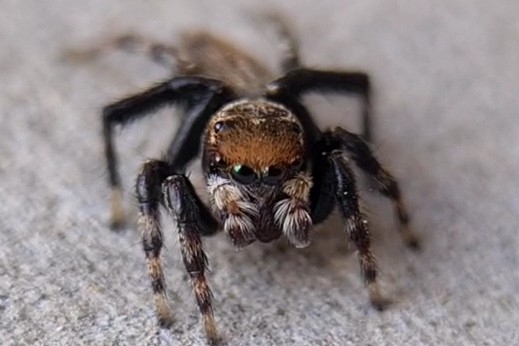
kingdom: Animalia
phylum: Arthropoda
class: Arachnida
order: Araneae
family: Salticidae
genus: Maratus
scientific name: Maratus griseus
